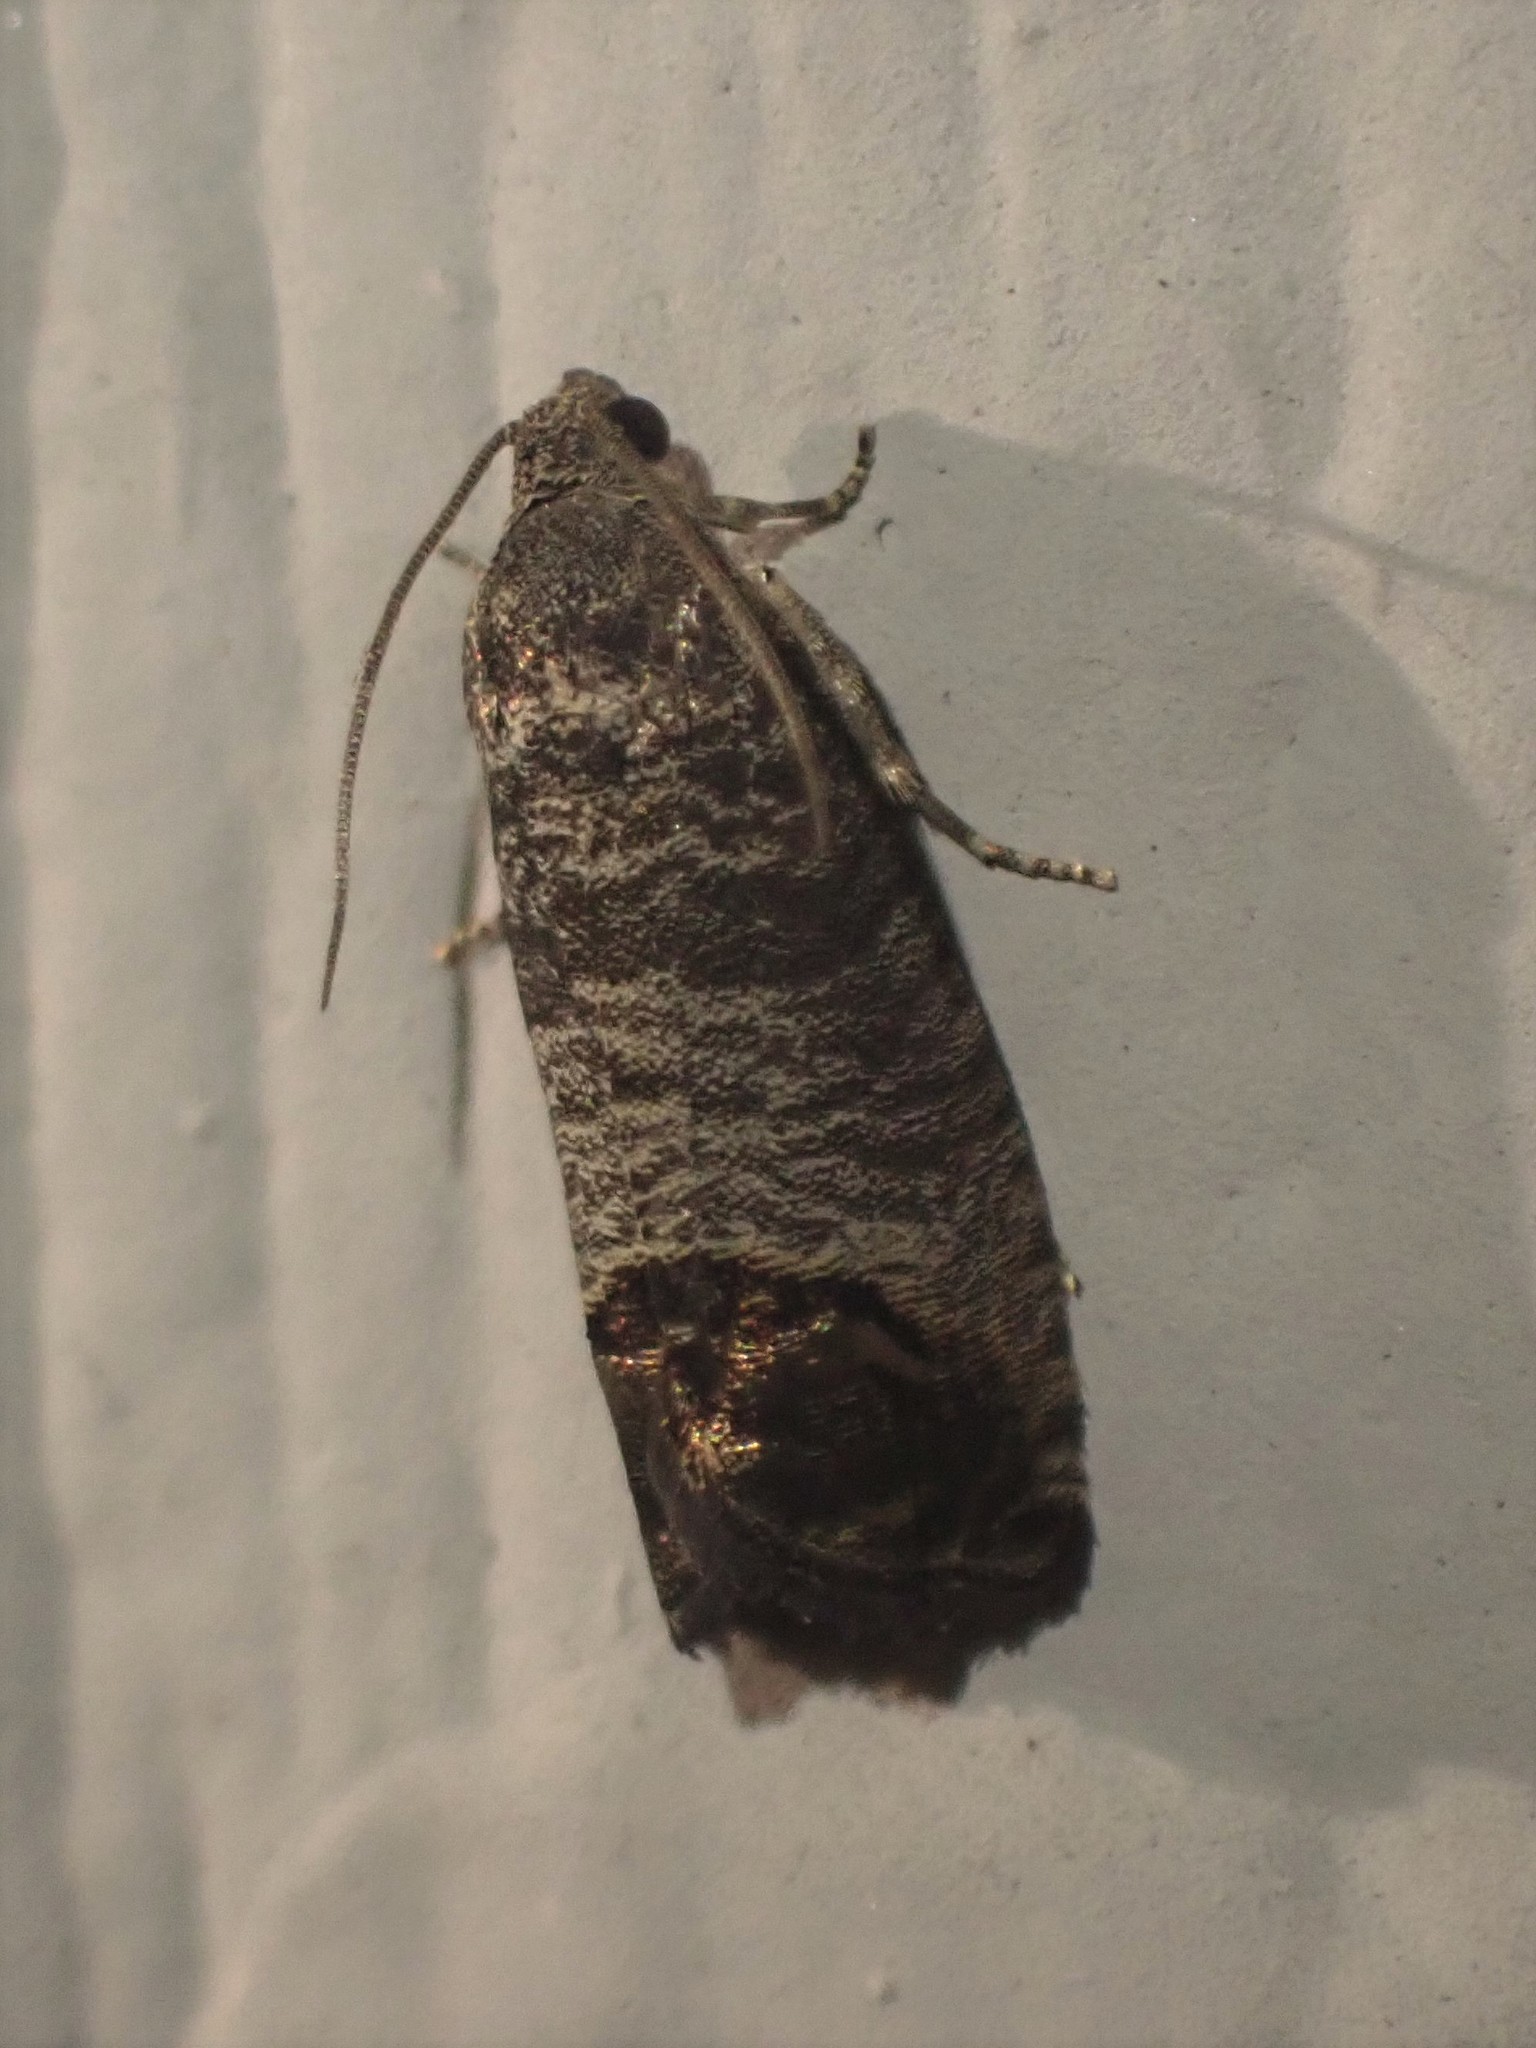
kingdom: Animalia
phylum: Arthropoda
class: Insecta
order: Lepidoptera
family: Tortricidae
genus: Cydia
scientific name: Cydia pomonella
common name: Codling moth
